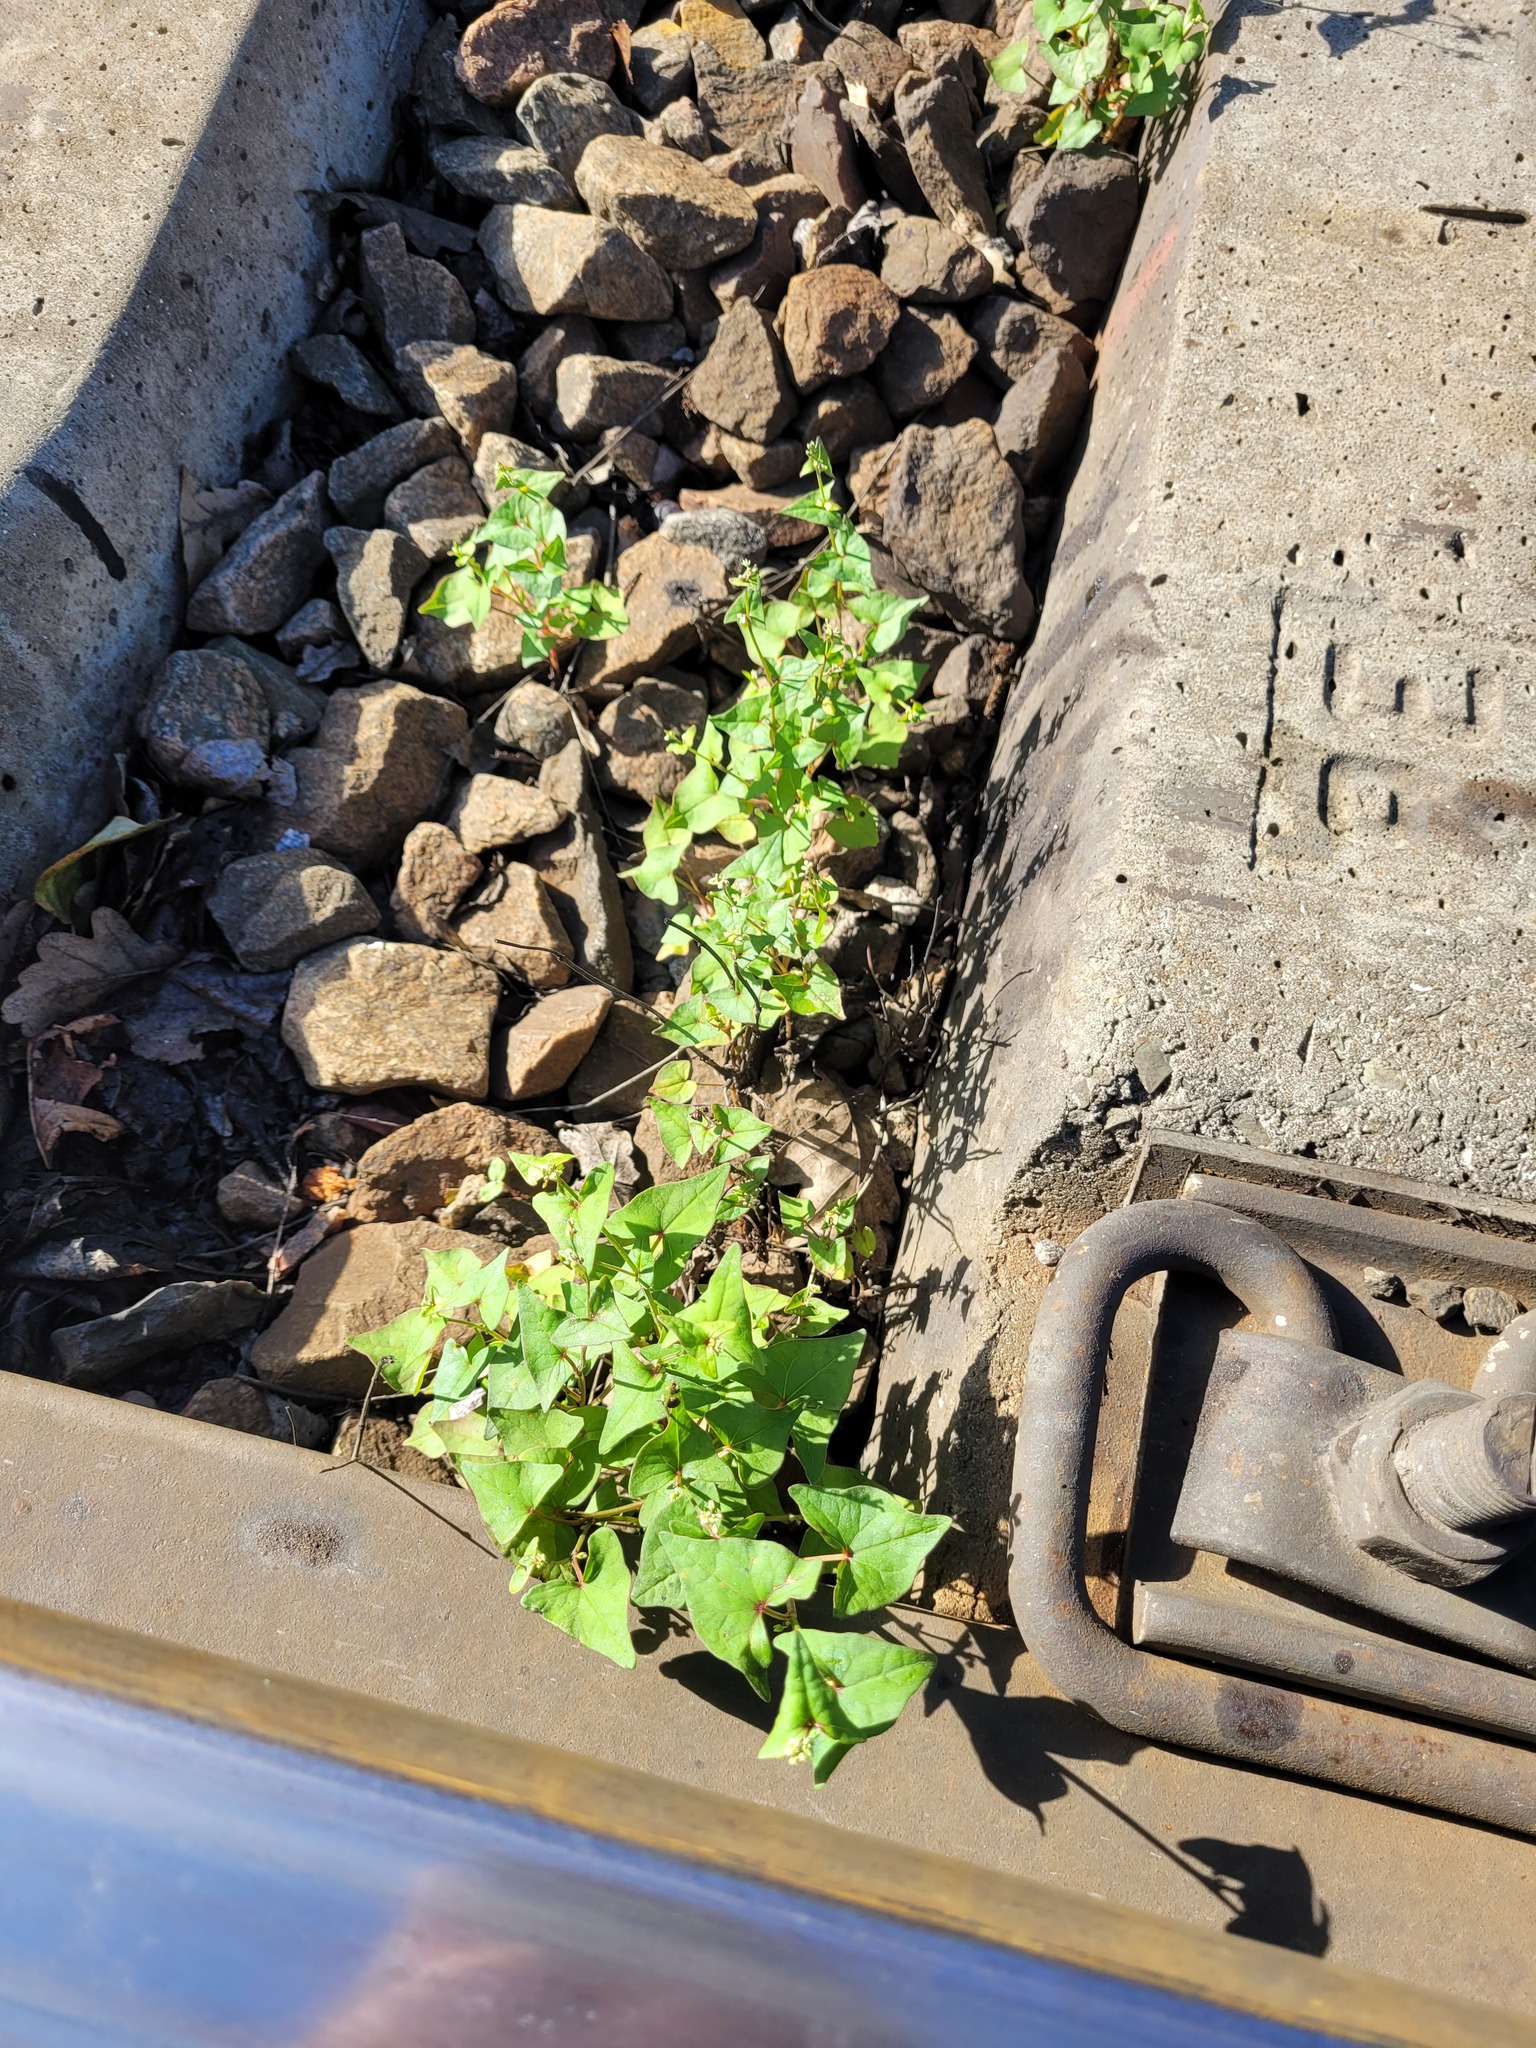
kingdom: Plantae
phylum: Tracheophyta
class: Magnoliopsida
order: Caryophyllales
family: Polygonaceae
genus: Fagopyrum
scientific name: Fagopyrum tataricum
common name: Green buckwheat
